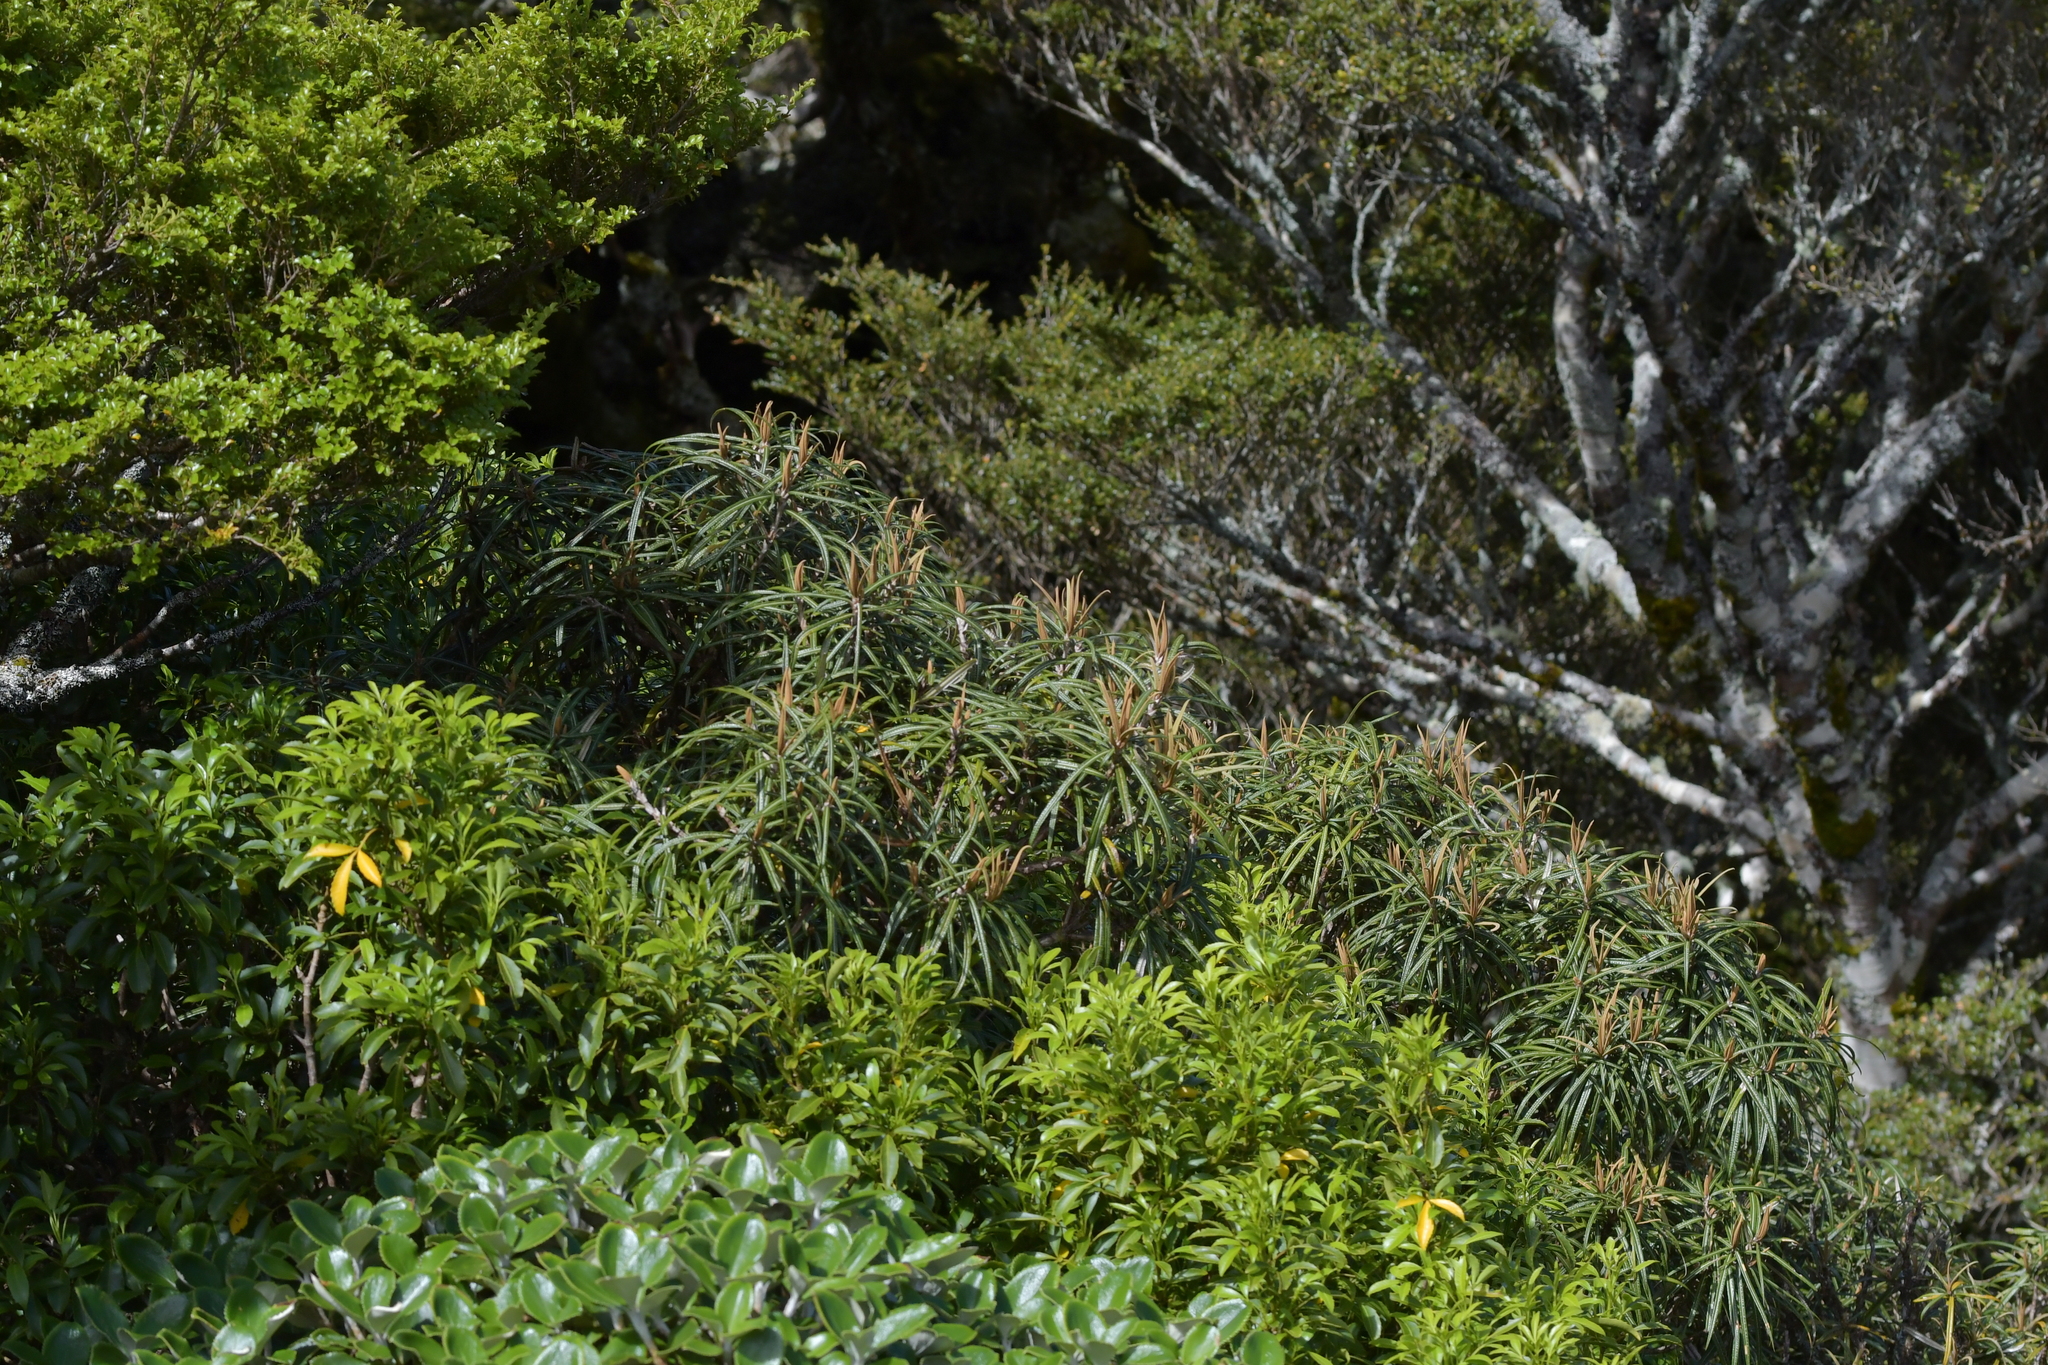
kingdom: Plantae
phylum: Tracheophyta
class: Magnoliopsida
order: Asterales
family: Asteraceae
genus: Olearia
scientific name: Olearia lacunosa
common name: Lancewood tree daisy
